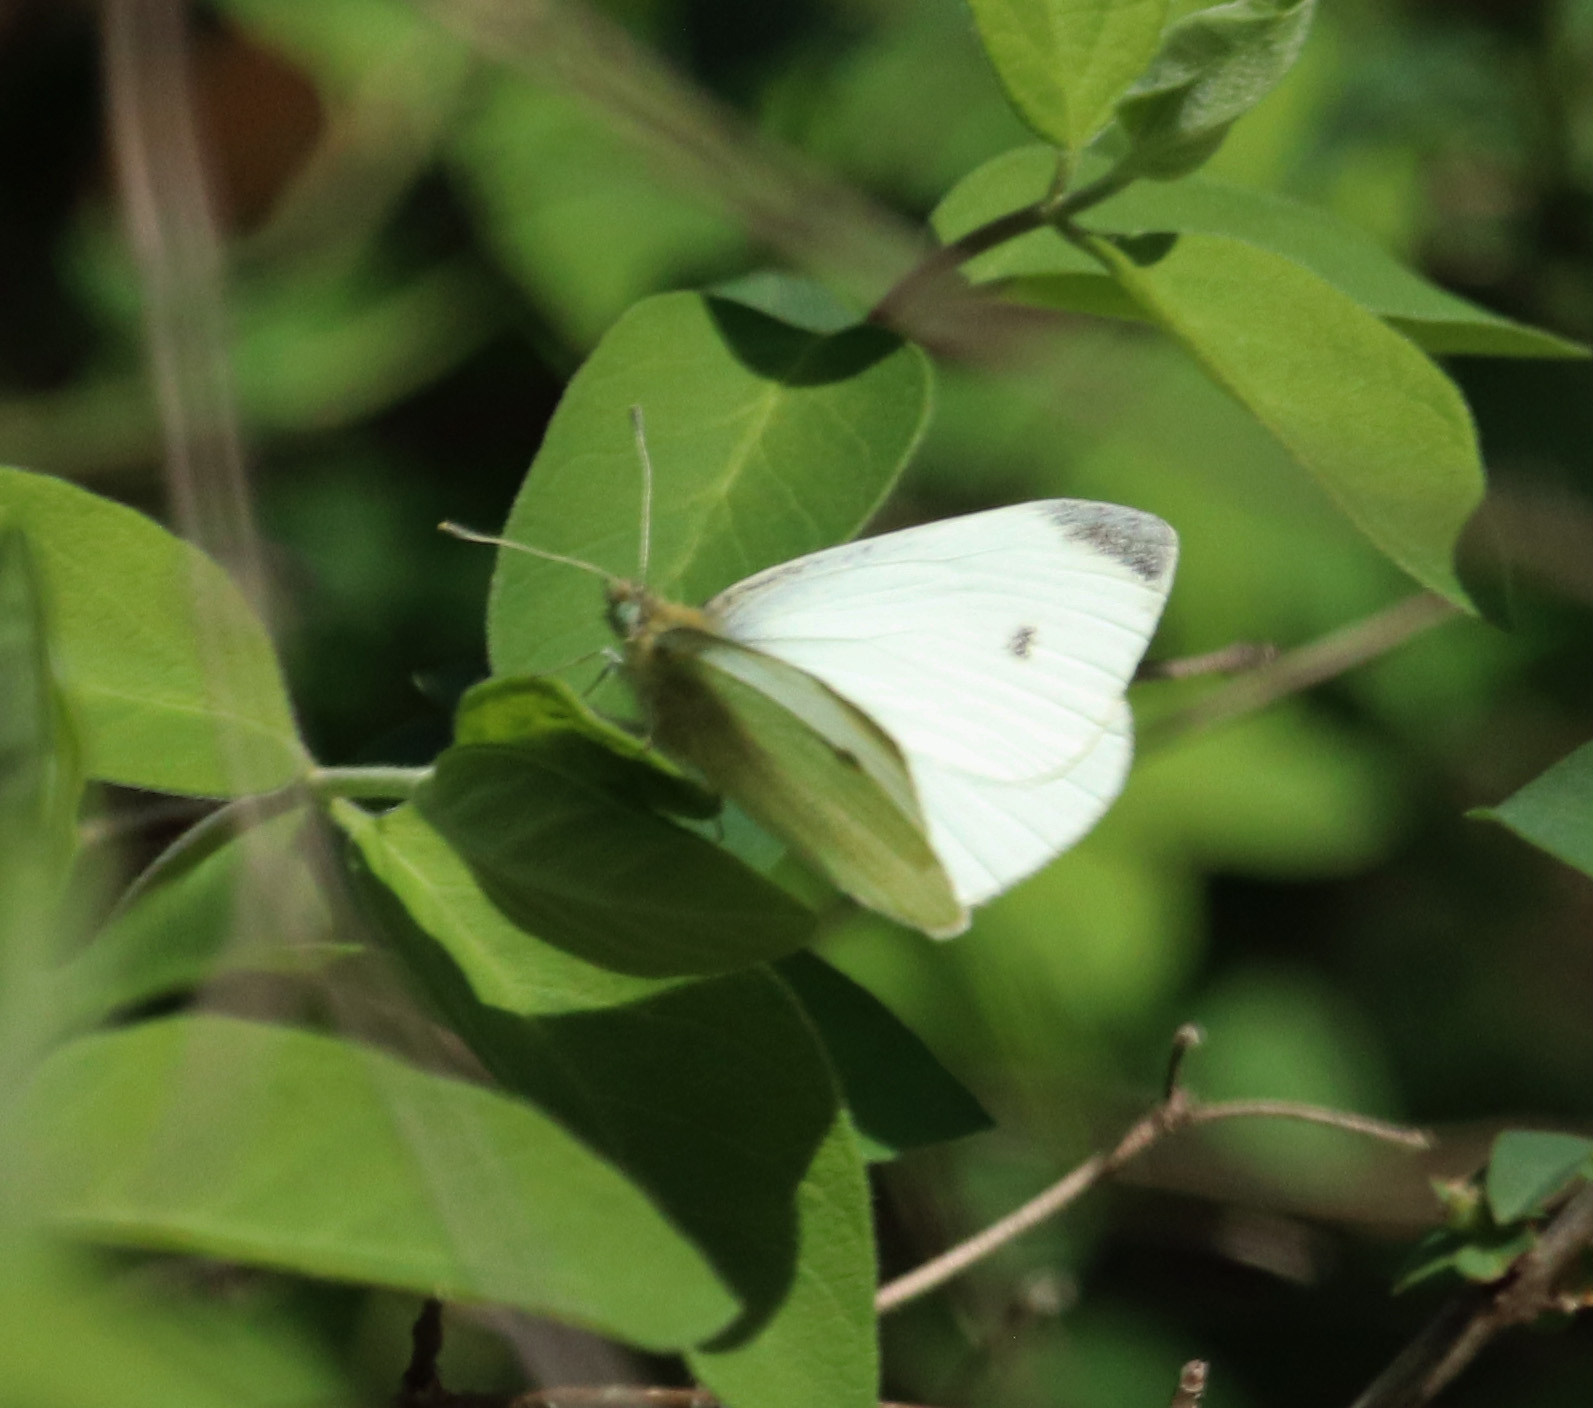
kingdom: Animalia
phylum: Arthropoda
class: Insecta
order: Lepidoptera
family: Pieridae
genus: Pieris
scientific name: Pieris rapae
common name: Small white
